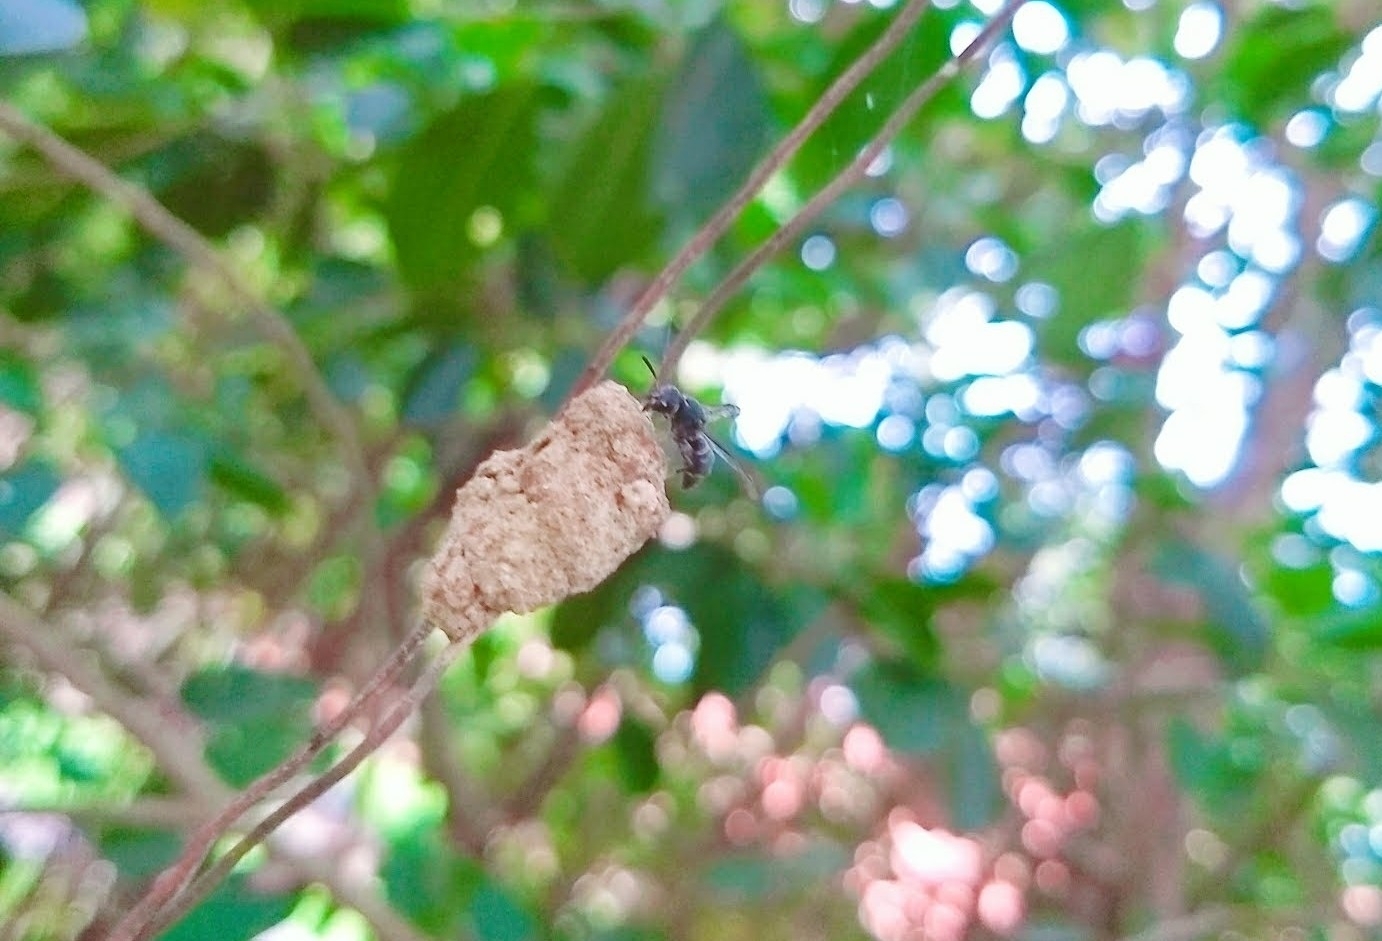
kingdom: Animalia
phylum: Arthropoda
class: Insecta
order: Hymenoptera
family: Eumenidae
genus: Paraleptomenes
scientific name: Paraleptomenes
